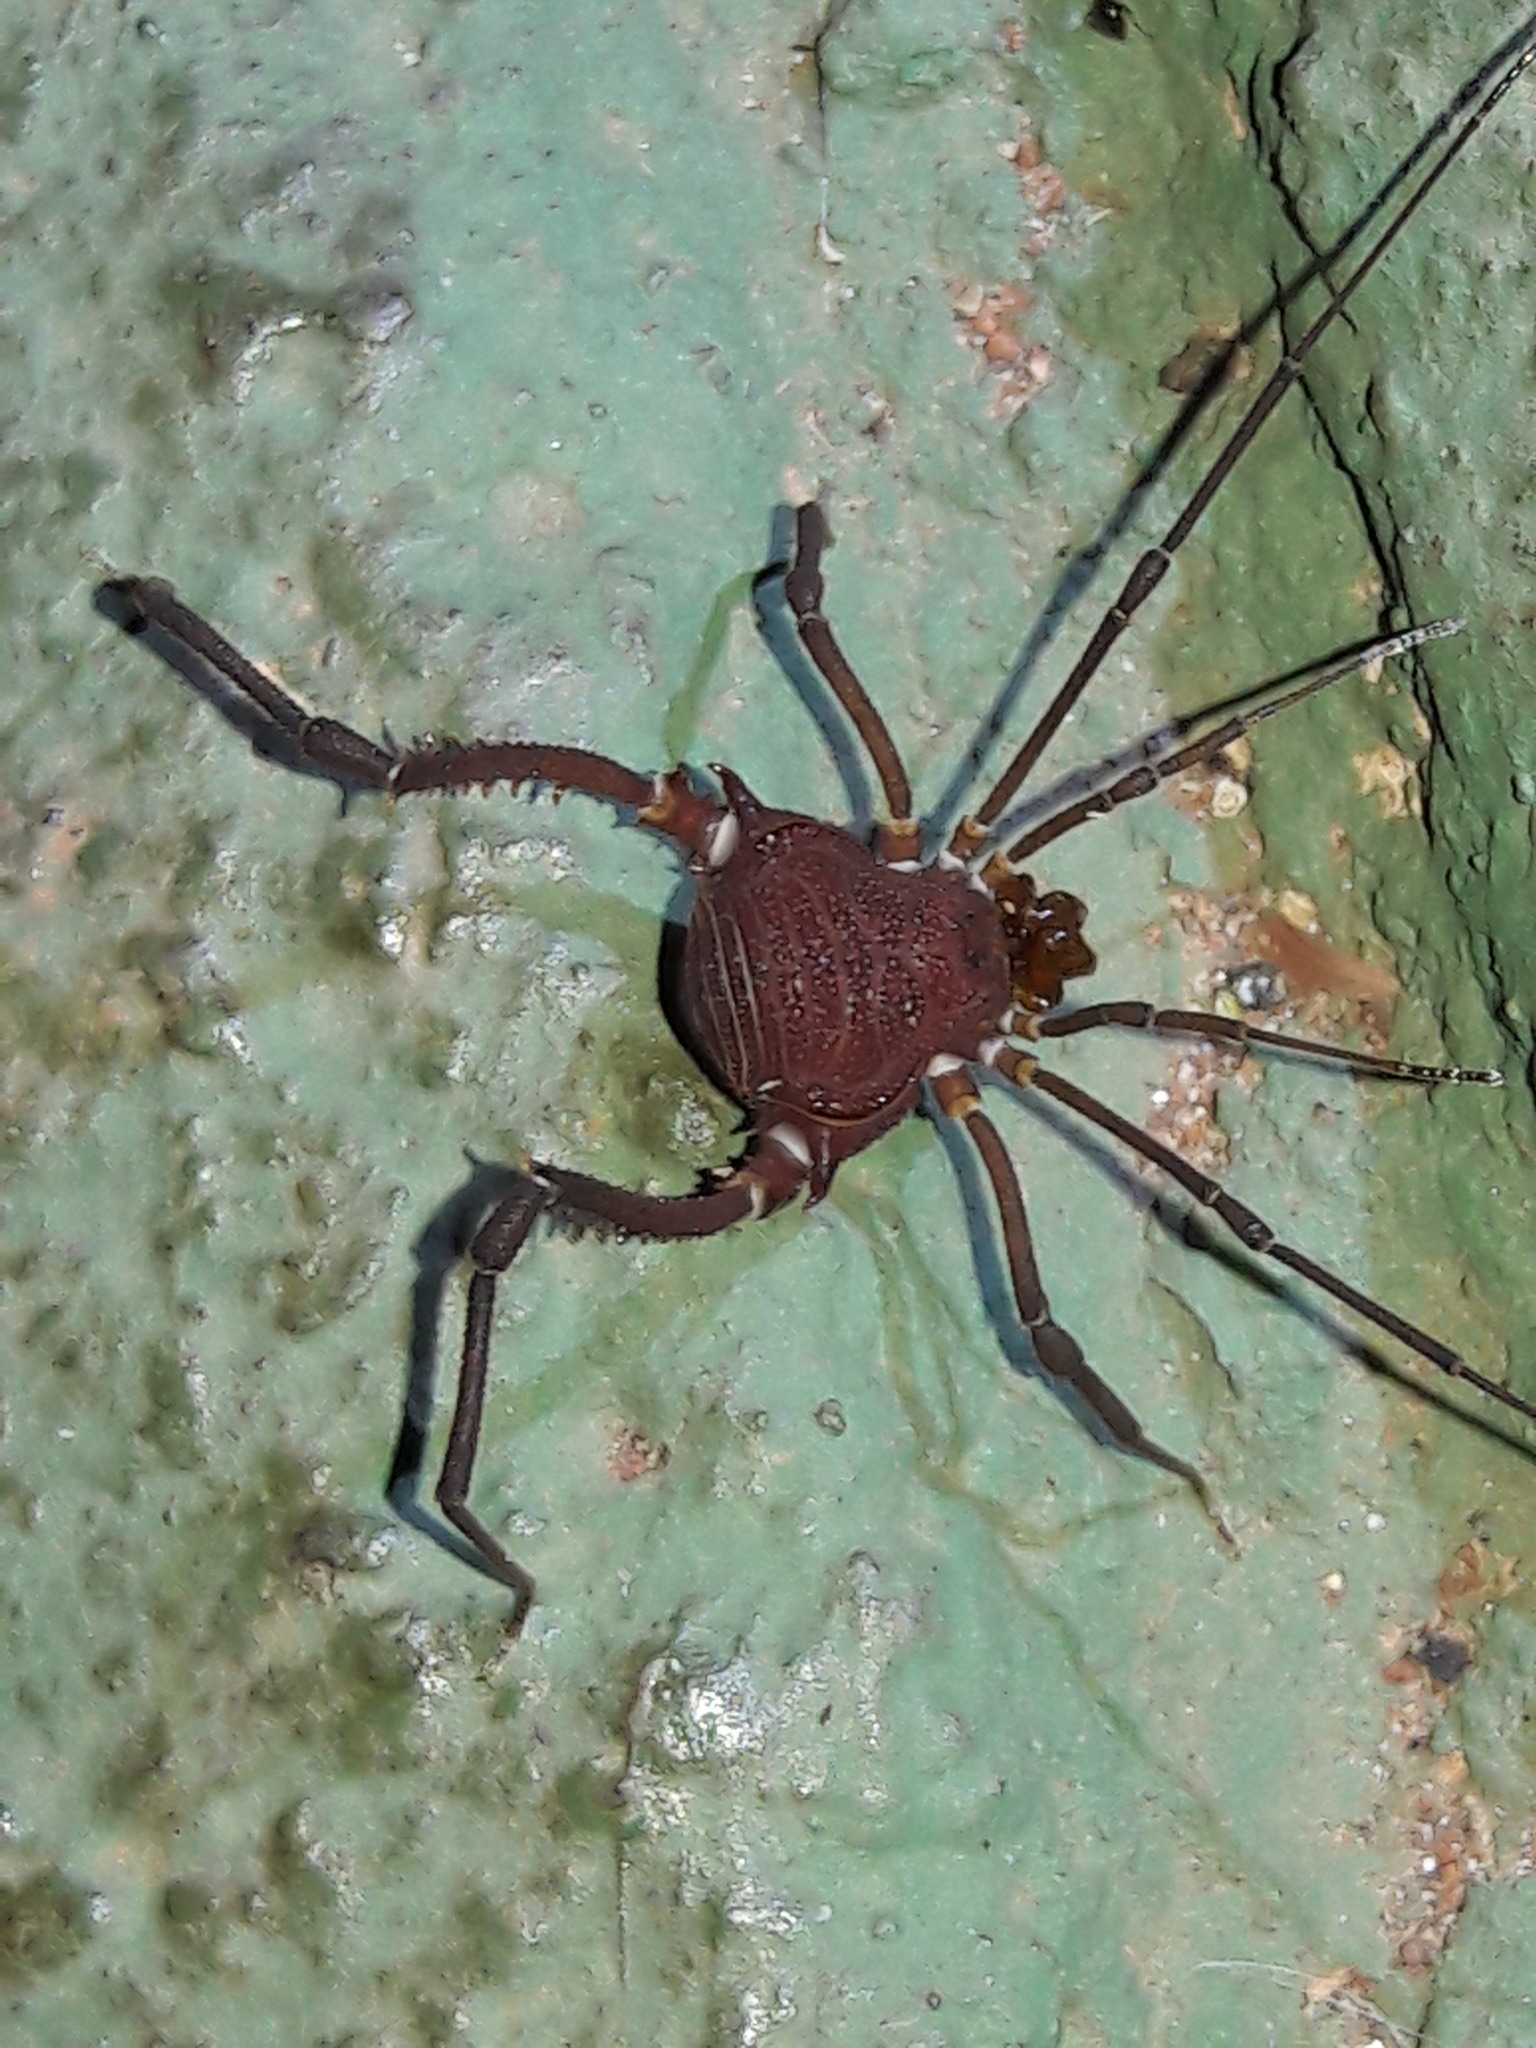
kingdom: Animalia
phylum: Arthropoda
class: Arachnida
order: Opiliones
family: Gonyleptidae
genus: Discocyrtanus
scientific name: Discocyrtanus oliverioi
